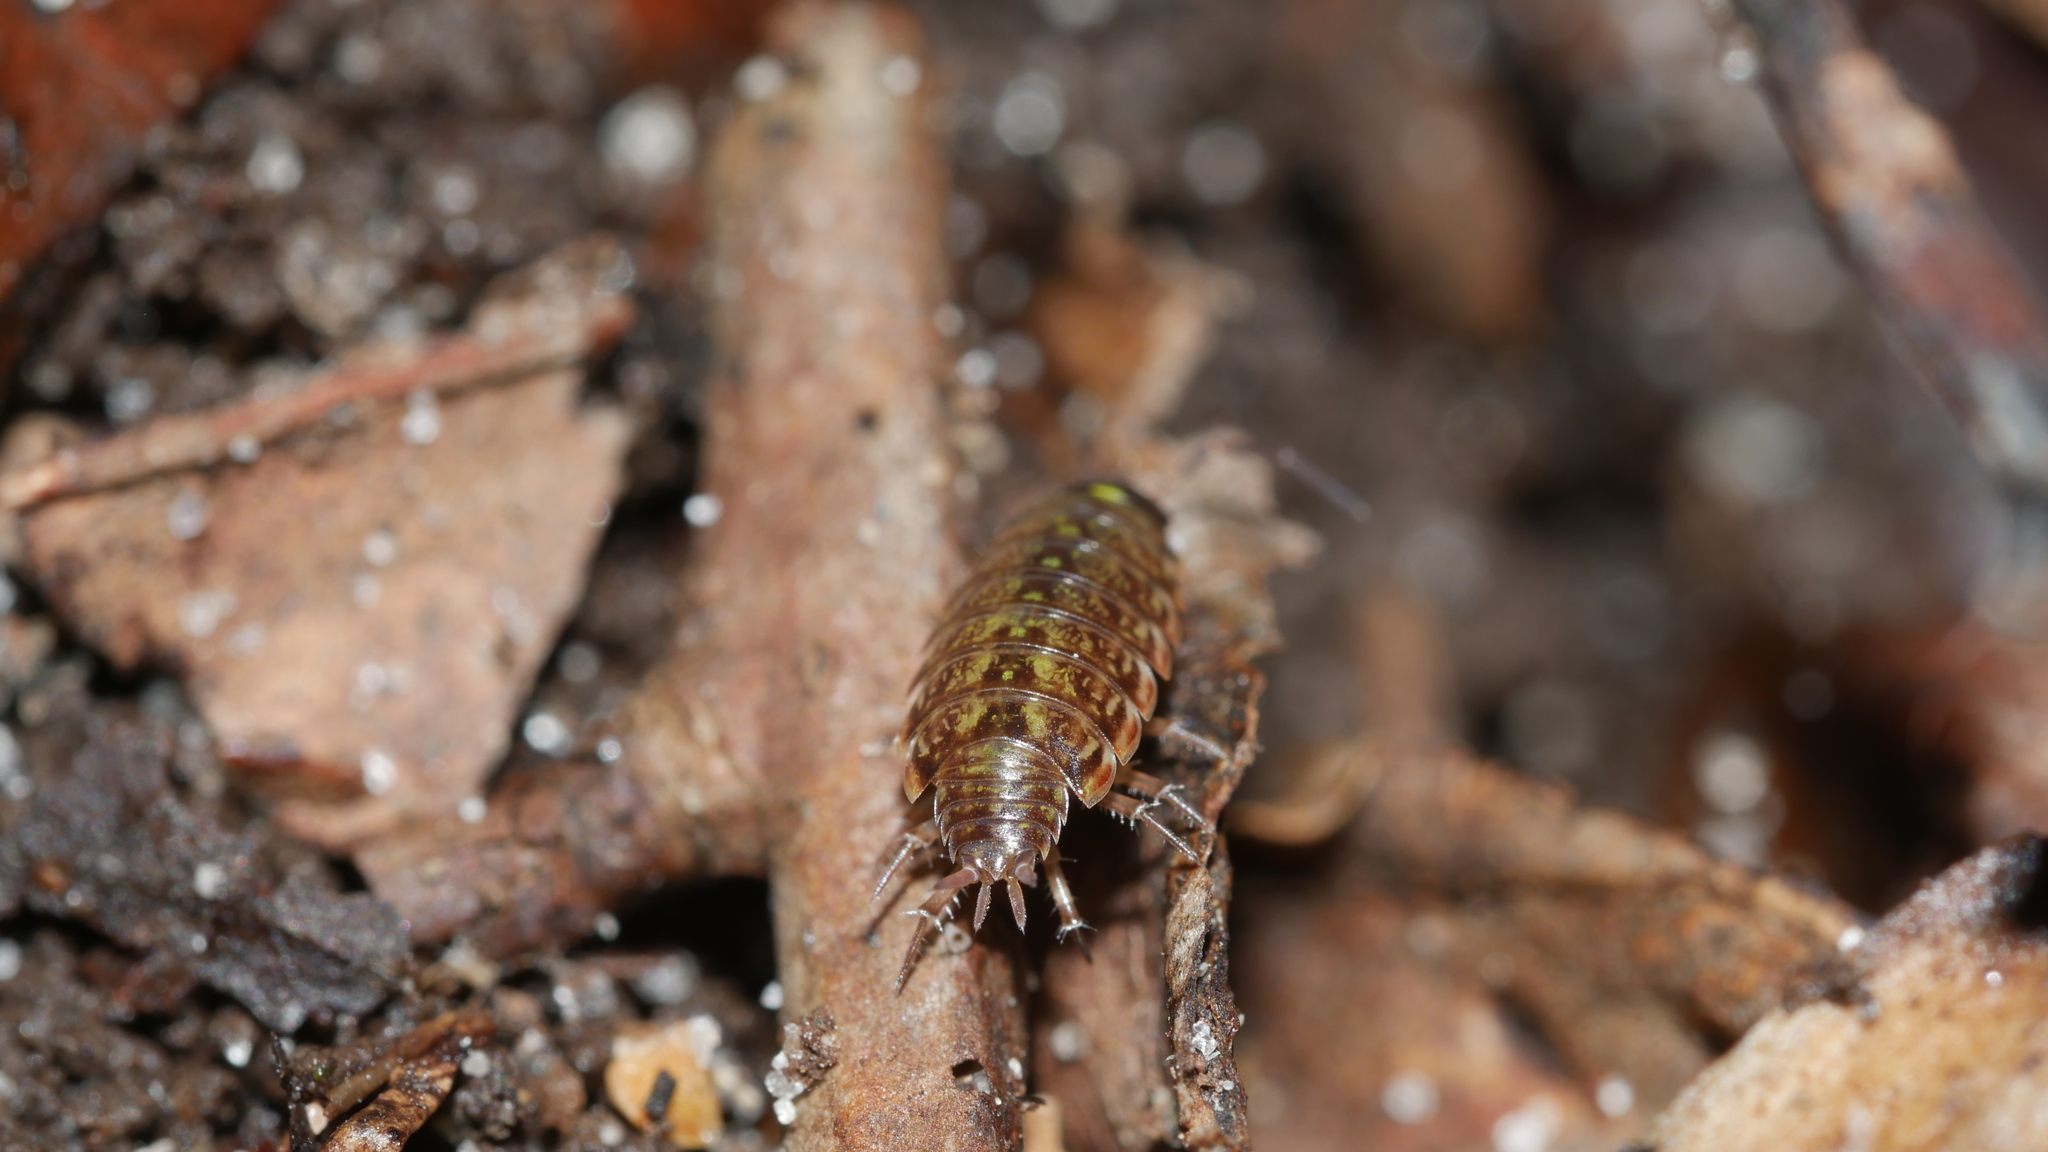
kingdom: Animalia
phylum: Arthropoda
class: Malacostraca
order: Isopoda
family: Philosciidae
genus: Philoscia
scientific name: Philoscia muscorum
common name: Common striped woodlouse
